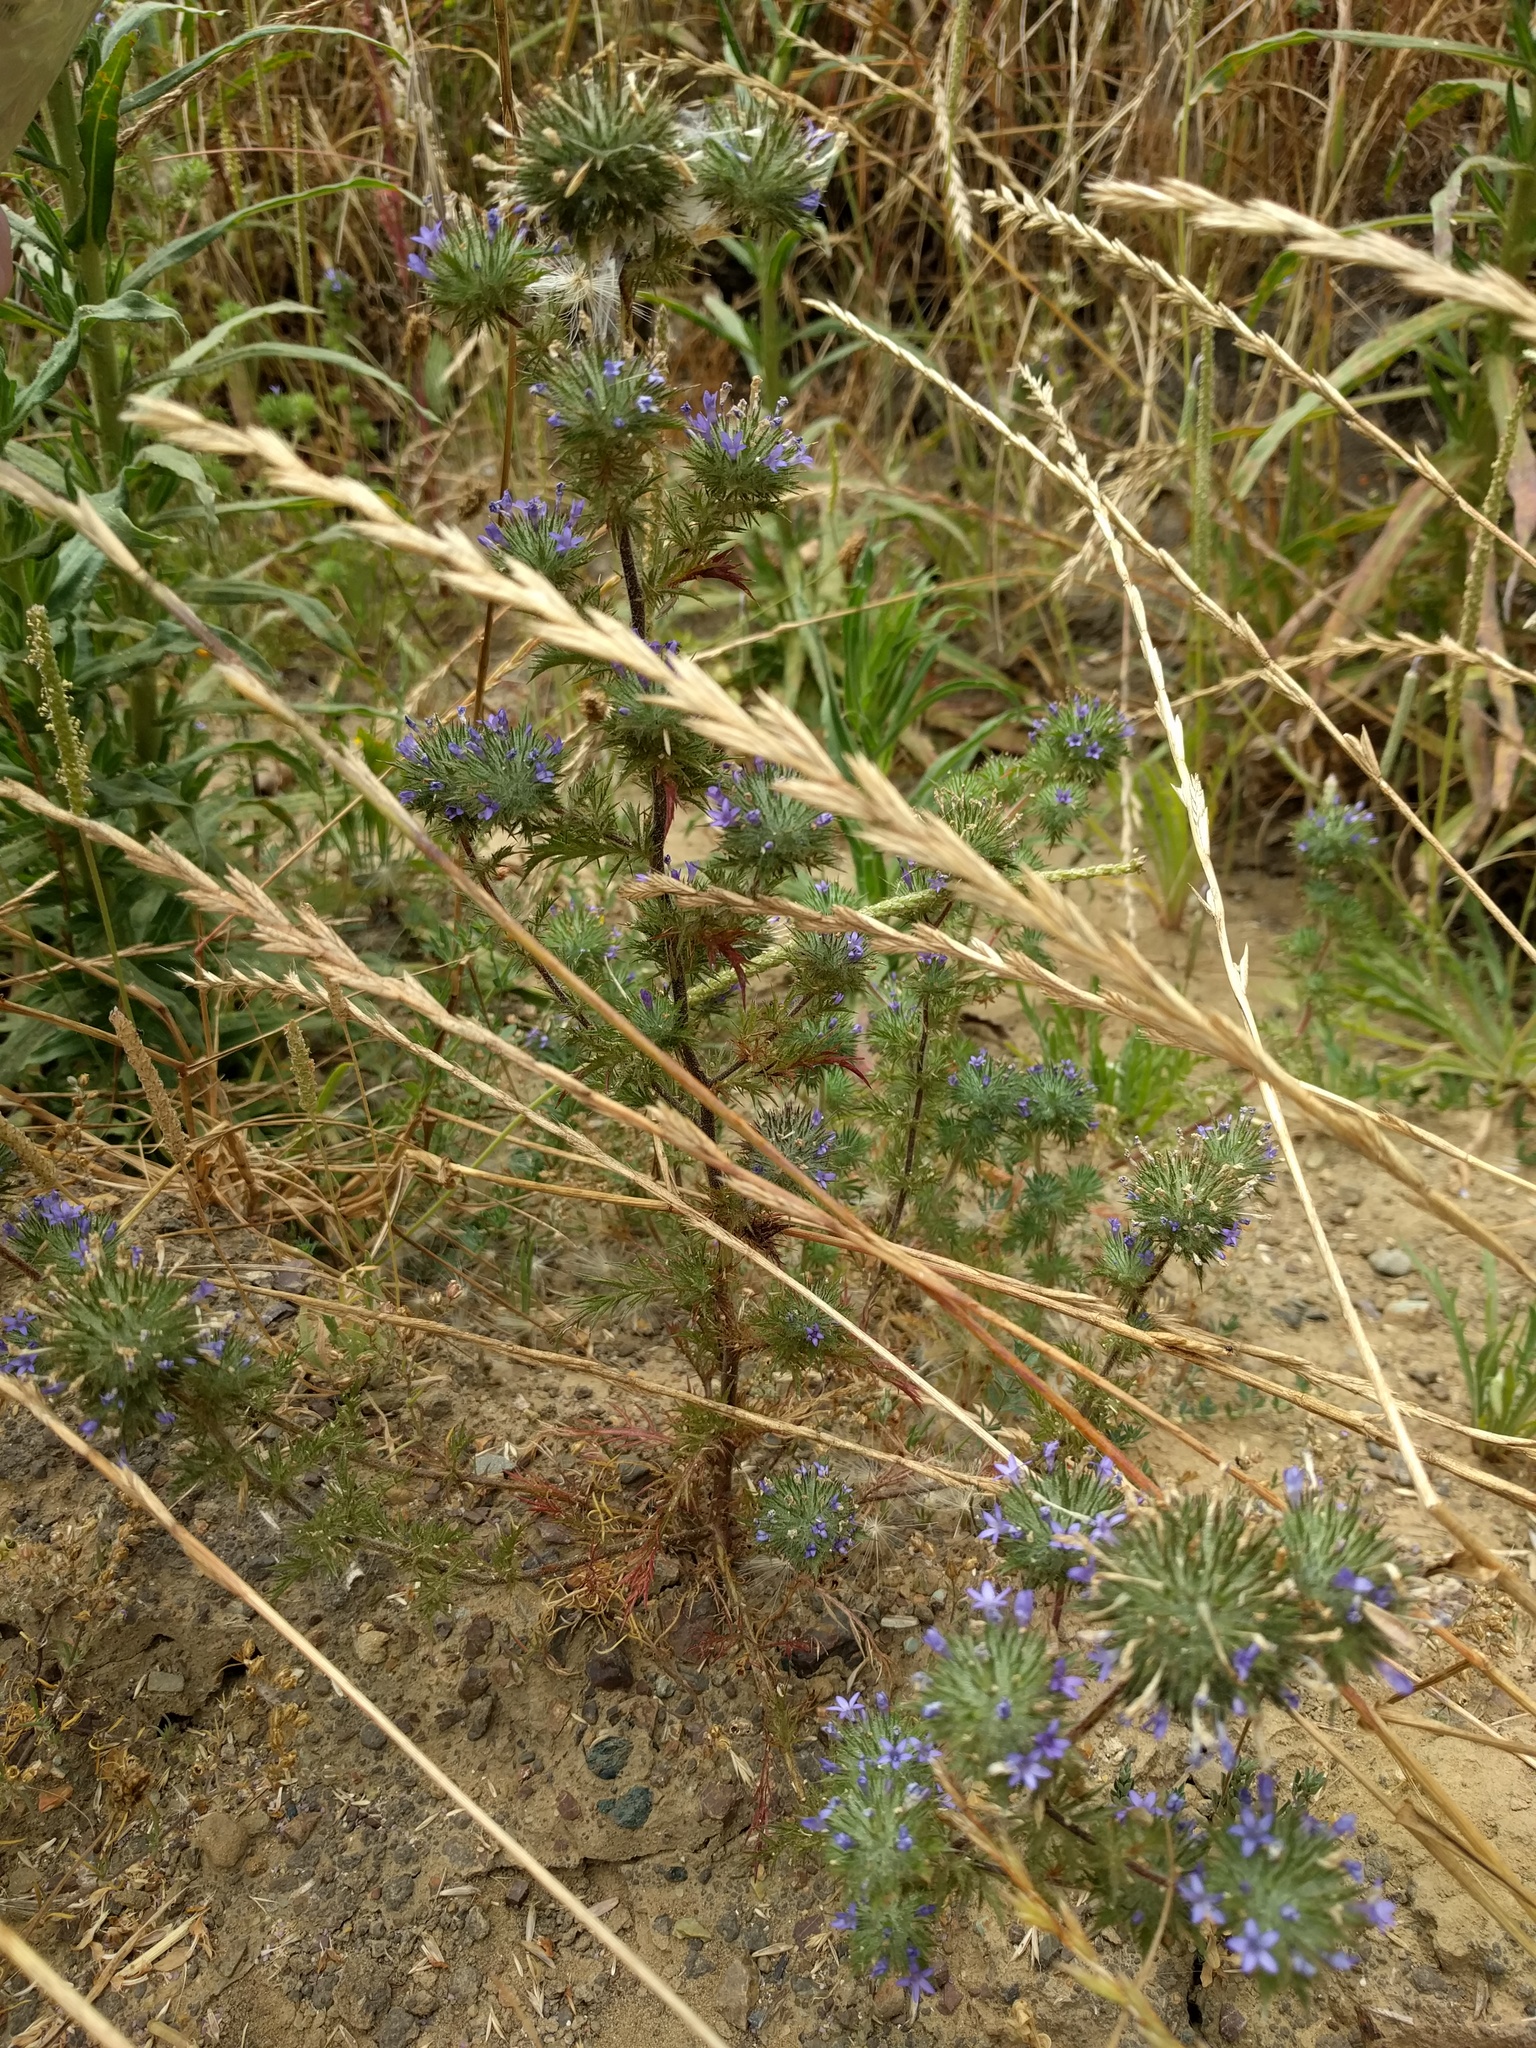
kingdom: Plantae
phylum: Tracheophyta
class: Magnoliopsida
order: Ericales
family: Polemoniaceae
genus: Navarretia
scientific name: Navarretia squarrosa
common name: Skunkweed
